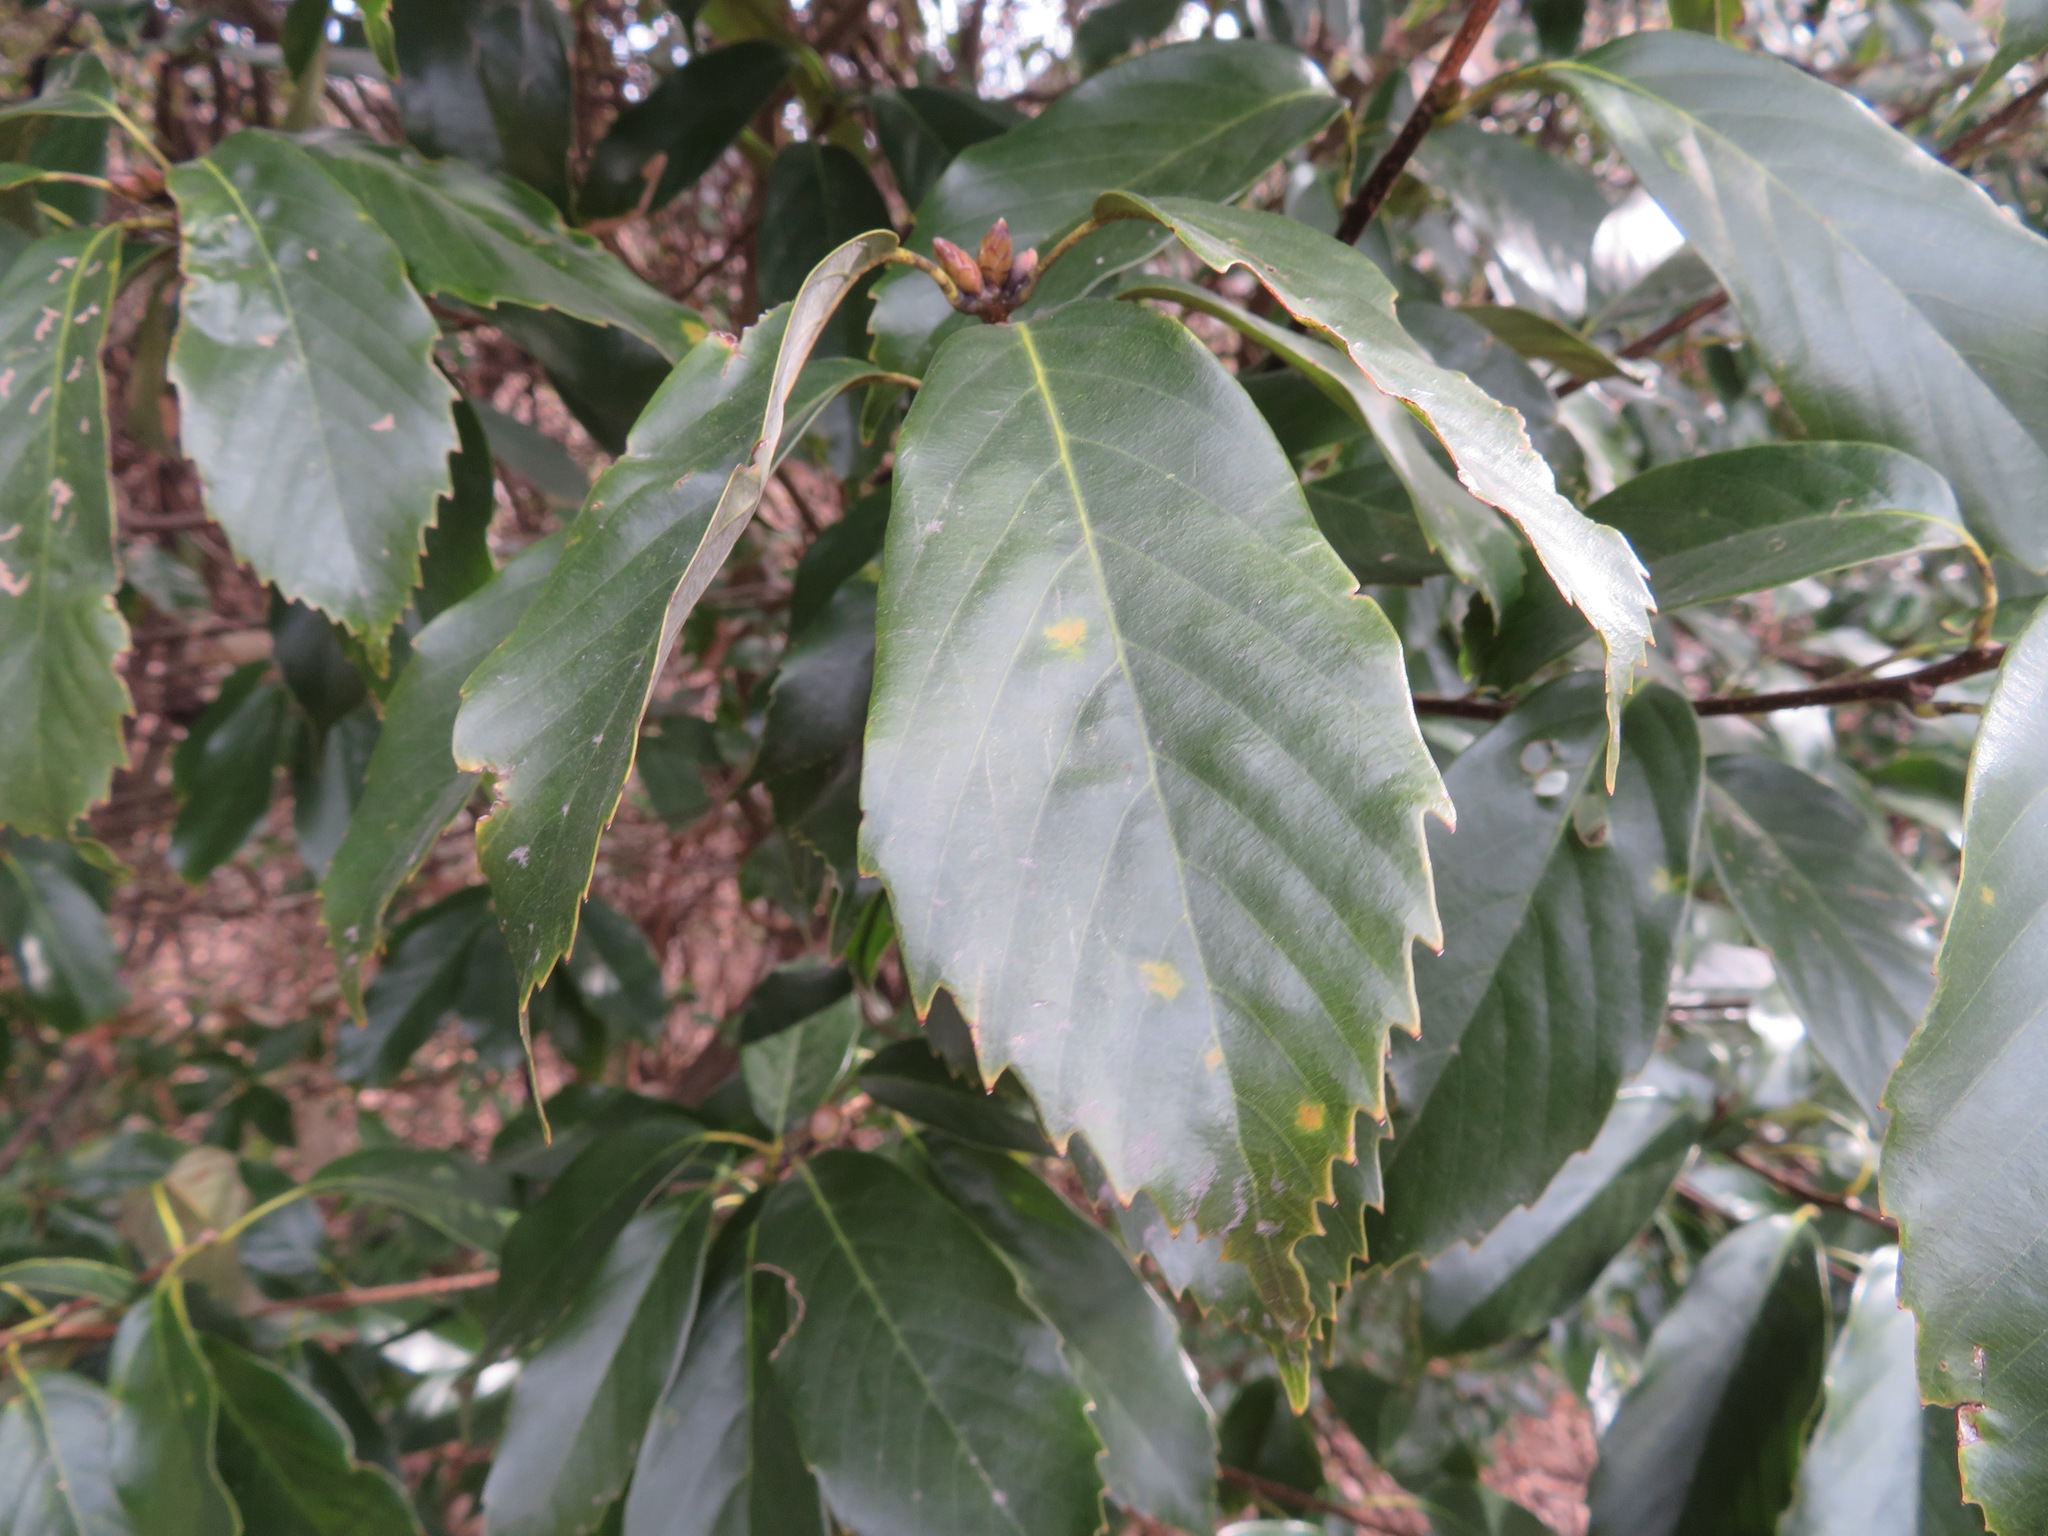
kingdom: Plantae
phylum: Tracheophyta
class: Magnoliopsida
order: Fagales
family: Fagaceae
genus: Quercus
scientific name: Quercus glauca
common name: Ring-cup oak
